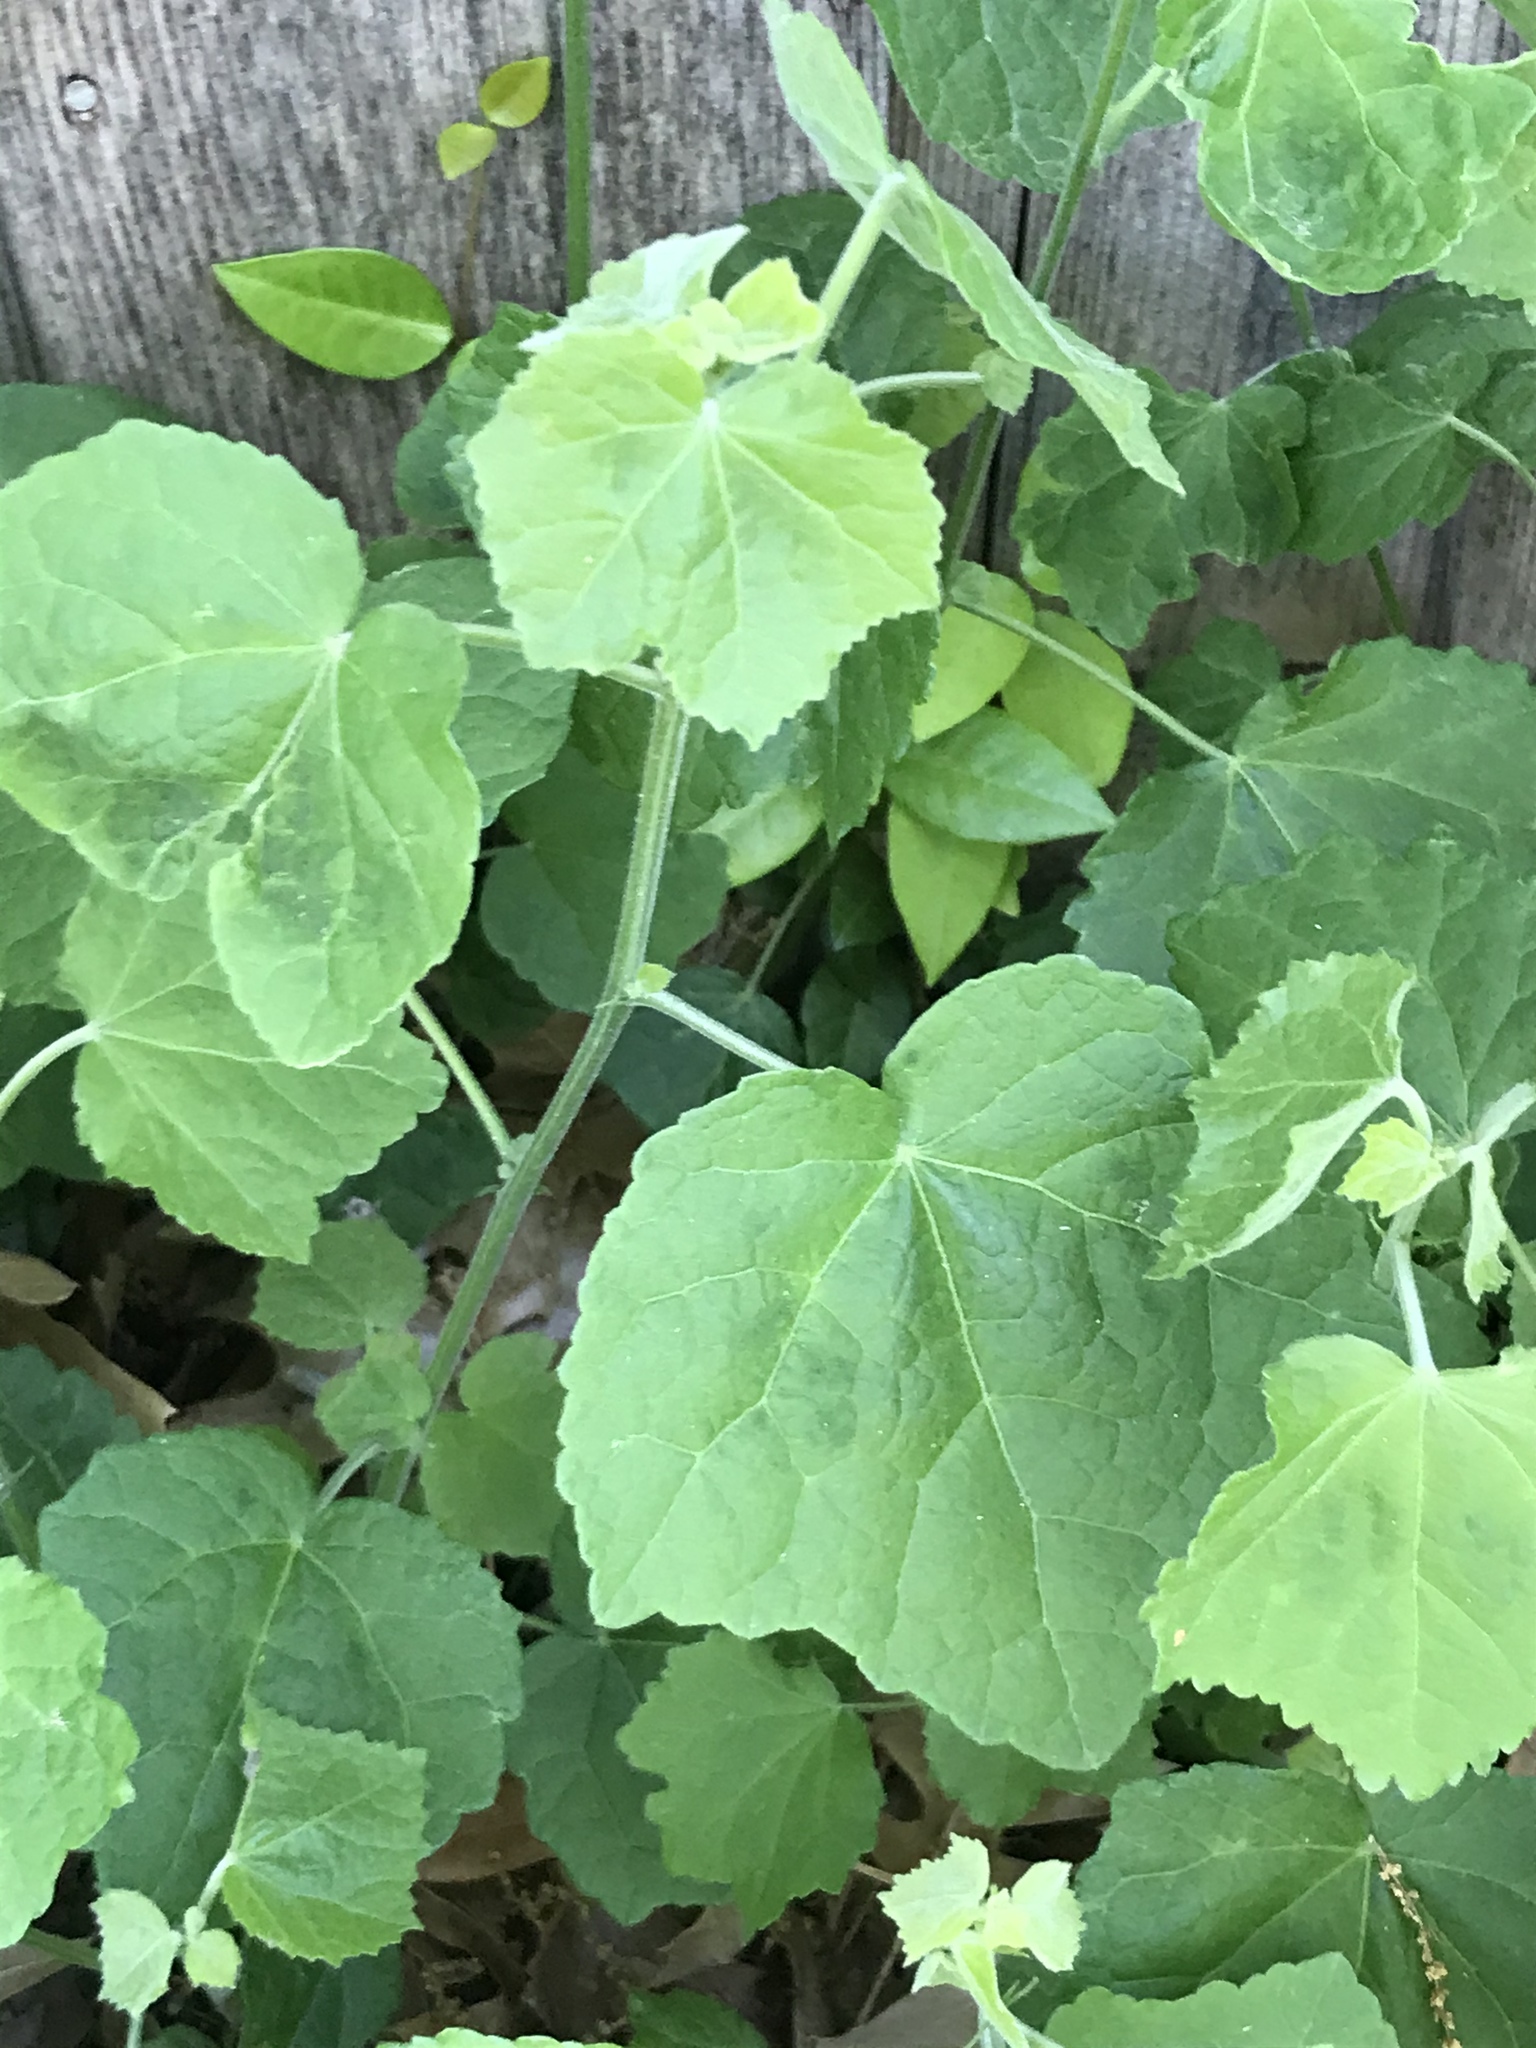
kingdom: Plantae
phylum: Tracheophyta
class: Magnoliopsida
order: Malvales
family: Malvaceae
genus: Malvaviscus
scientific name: Malvaviscus arboreus
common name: Wax mallow
